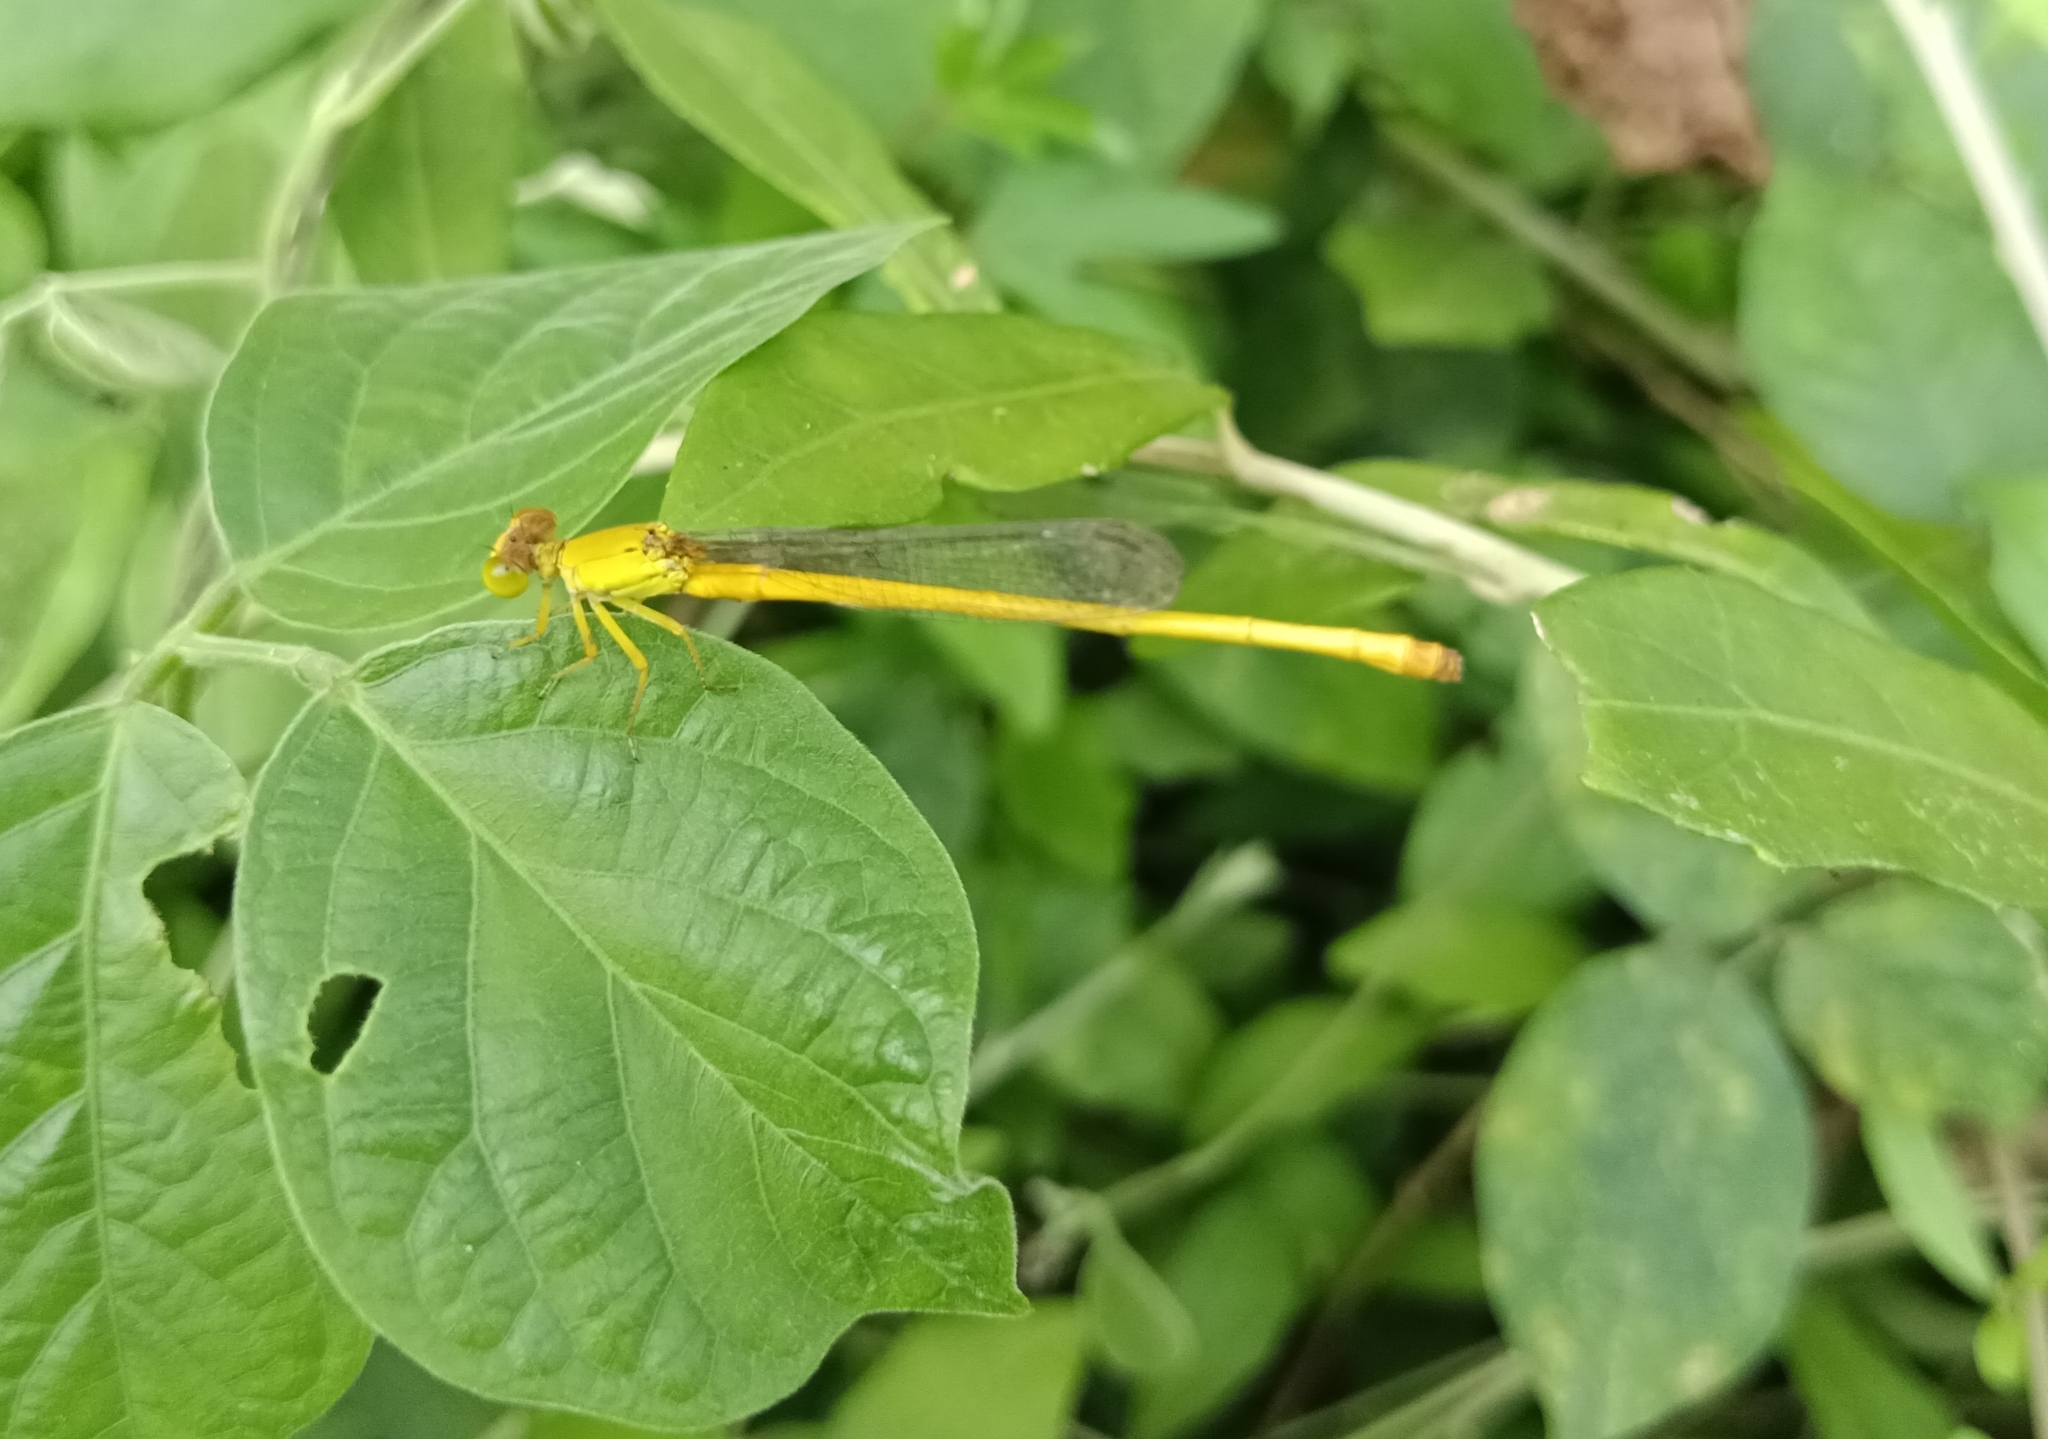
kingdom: Animalia
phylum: Arthropoda
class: Insecta
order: Odonata
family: Coenagrionidae
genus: Ceriagrion
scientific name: Ceriagrion coromandelianum
